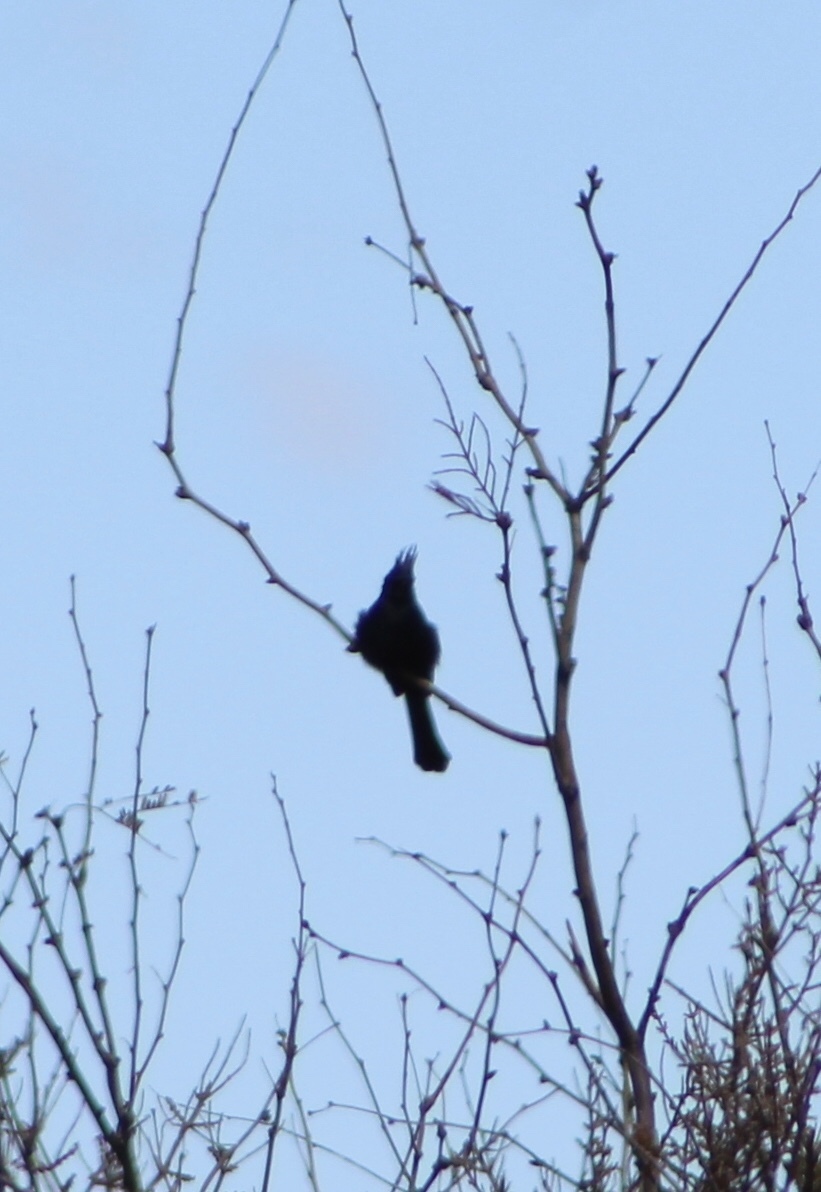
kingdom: Animalia
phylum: Chordata
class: Aves
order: Passeriformes
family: Ptilogonatidae
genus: Phainopepla
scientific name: Phainopepla nitens
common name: Phainopepla
